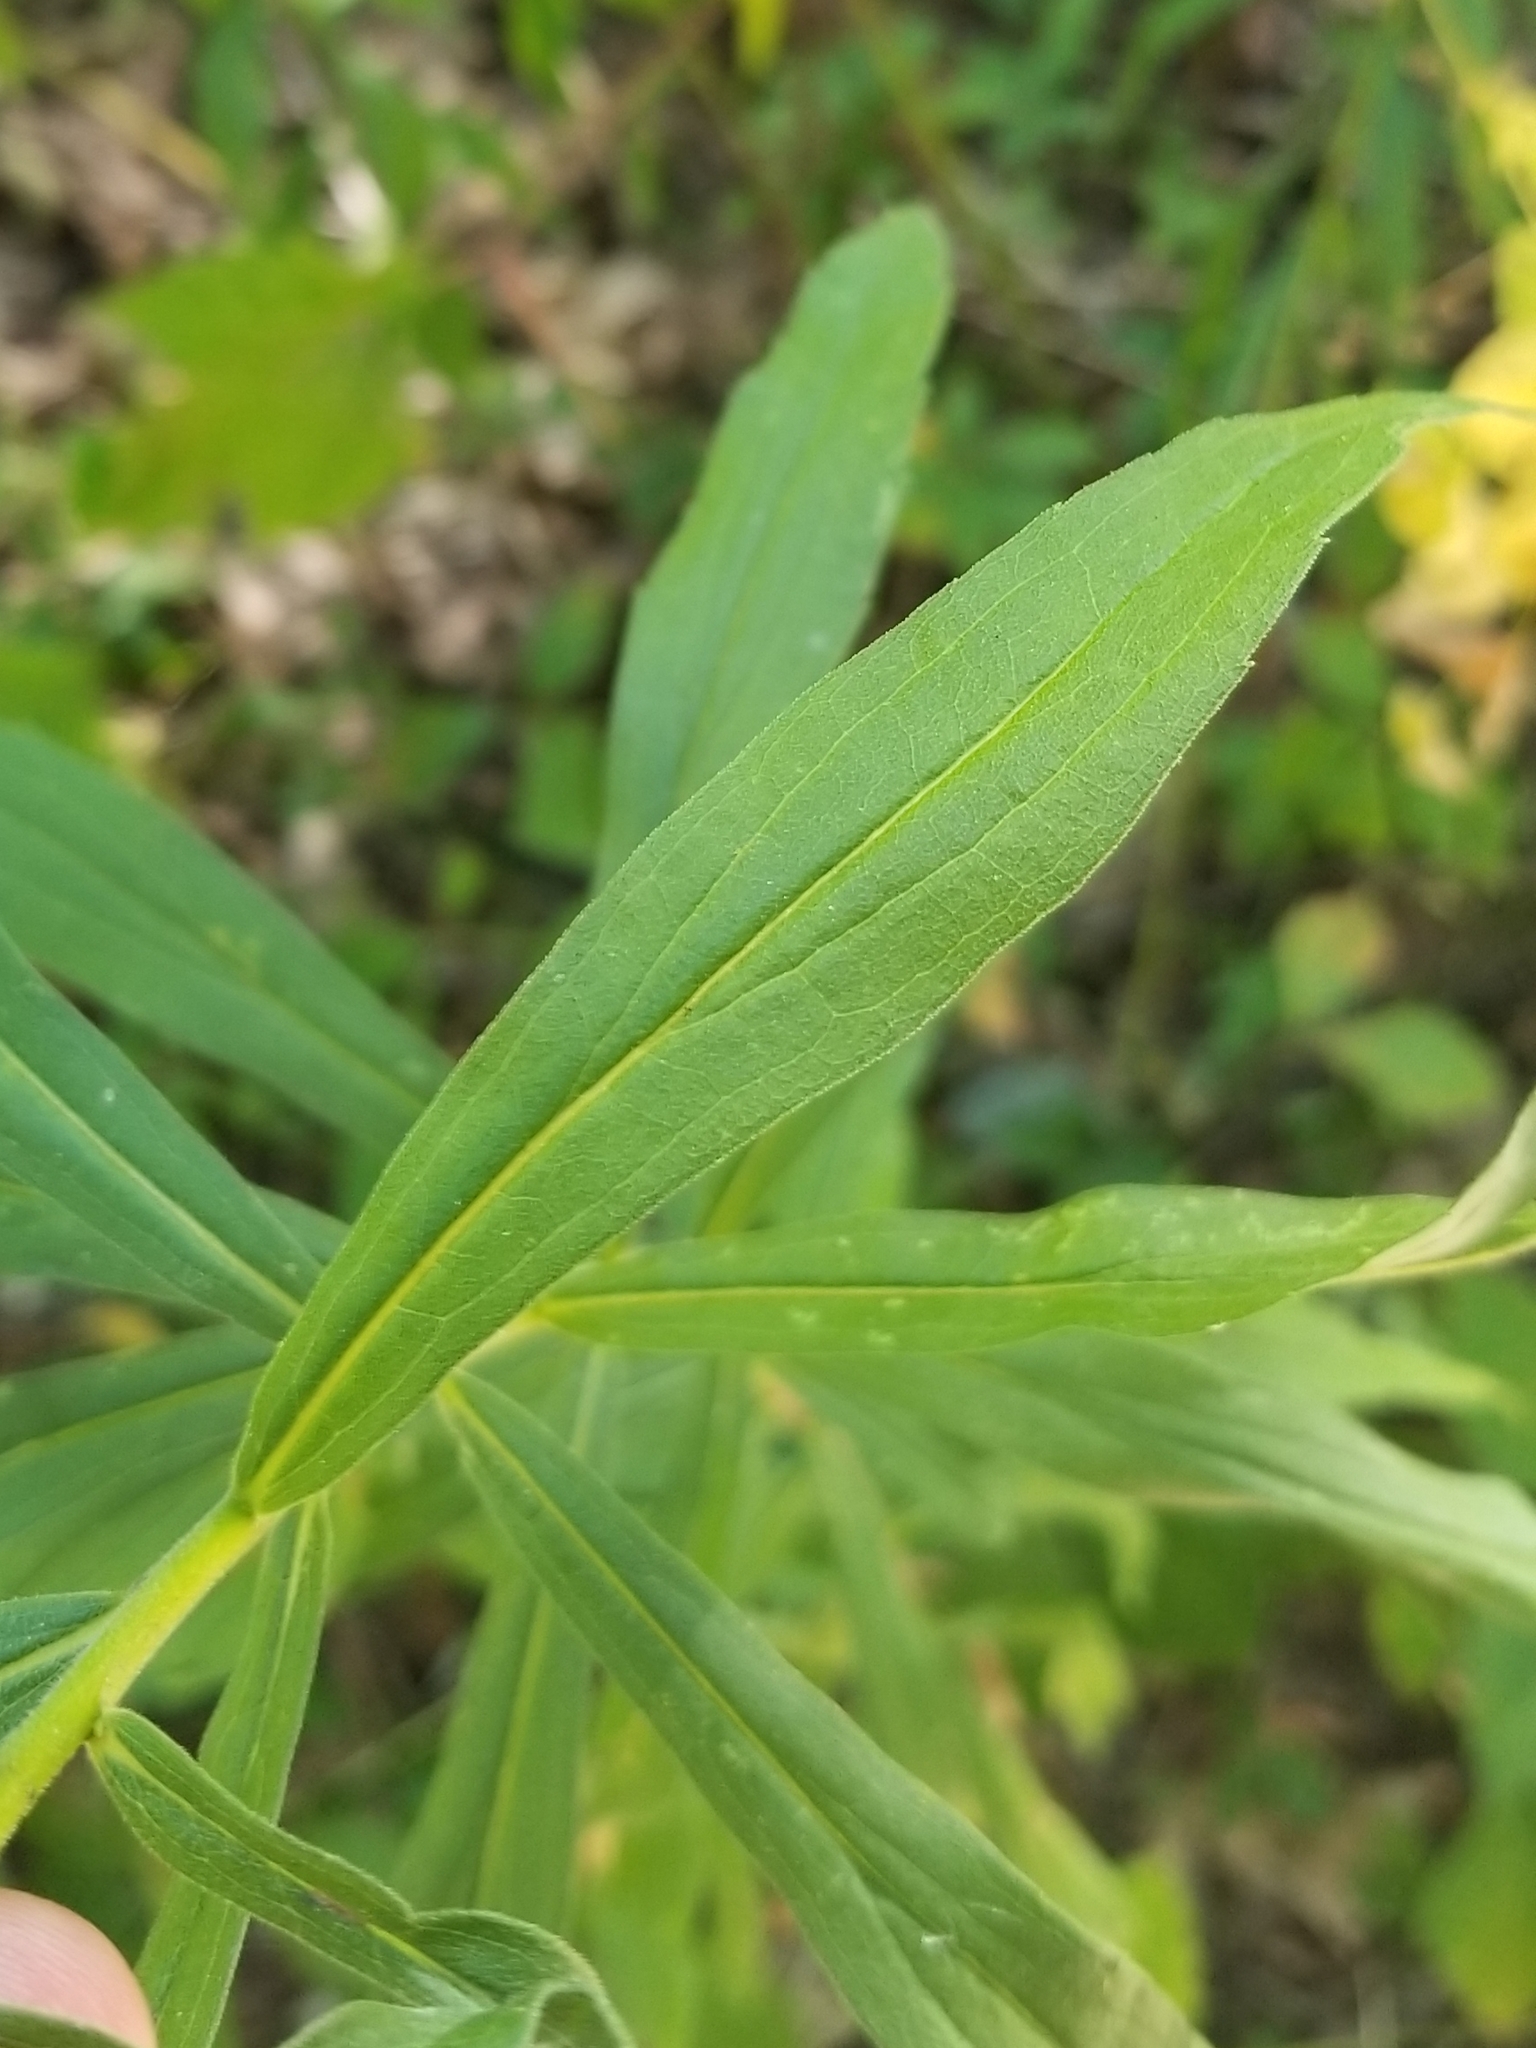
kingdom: Plantae
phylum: Tracheophyta
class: Magnoliopsida
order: Asterales
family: Asteraceae
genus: Solidago
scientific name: Solidago altissima
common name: Late goldenrod
